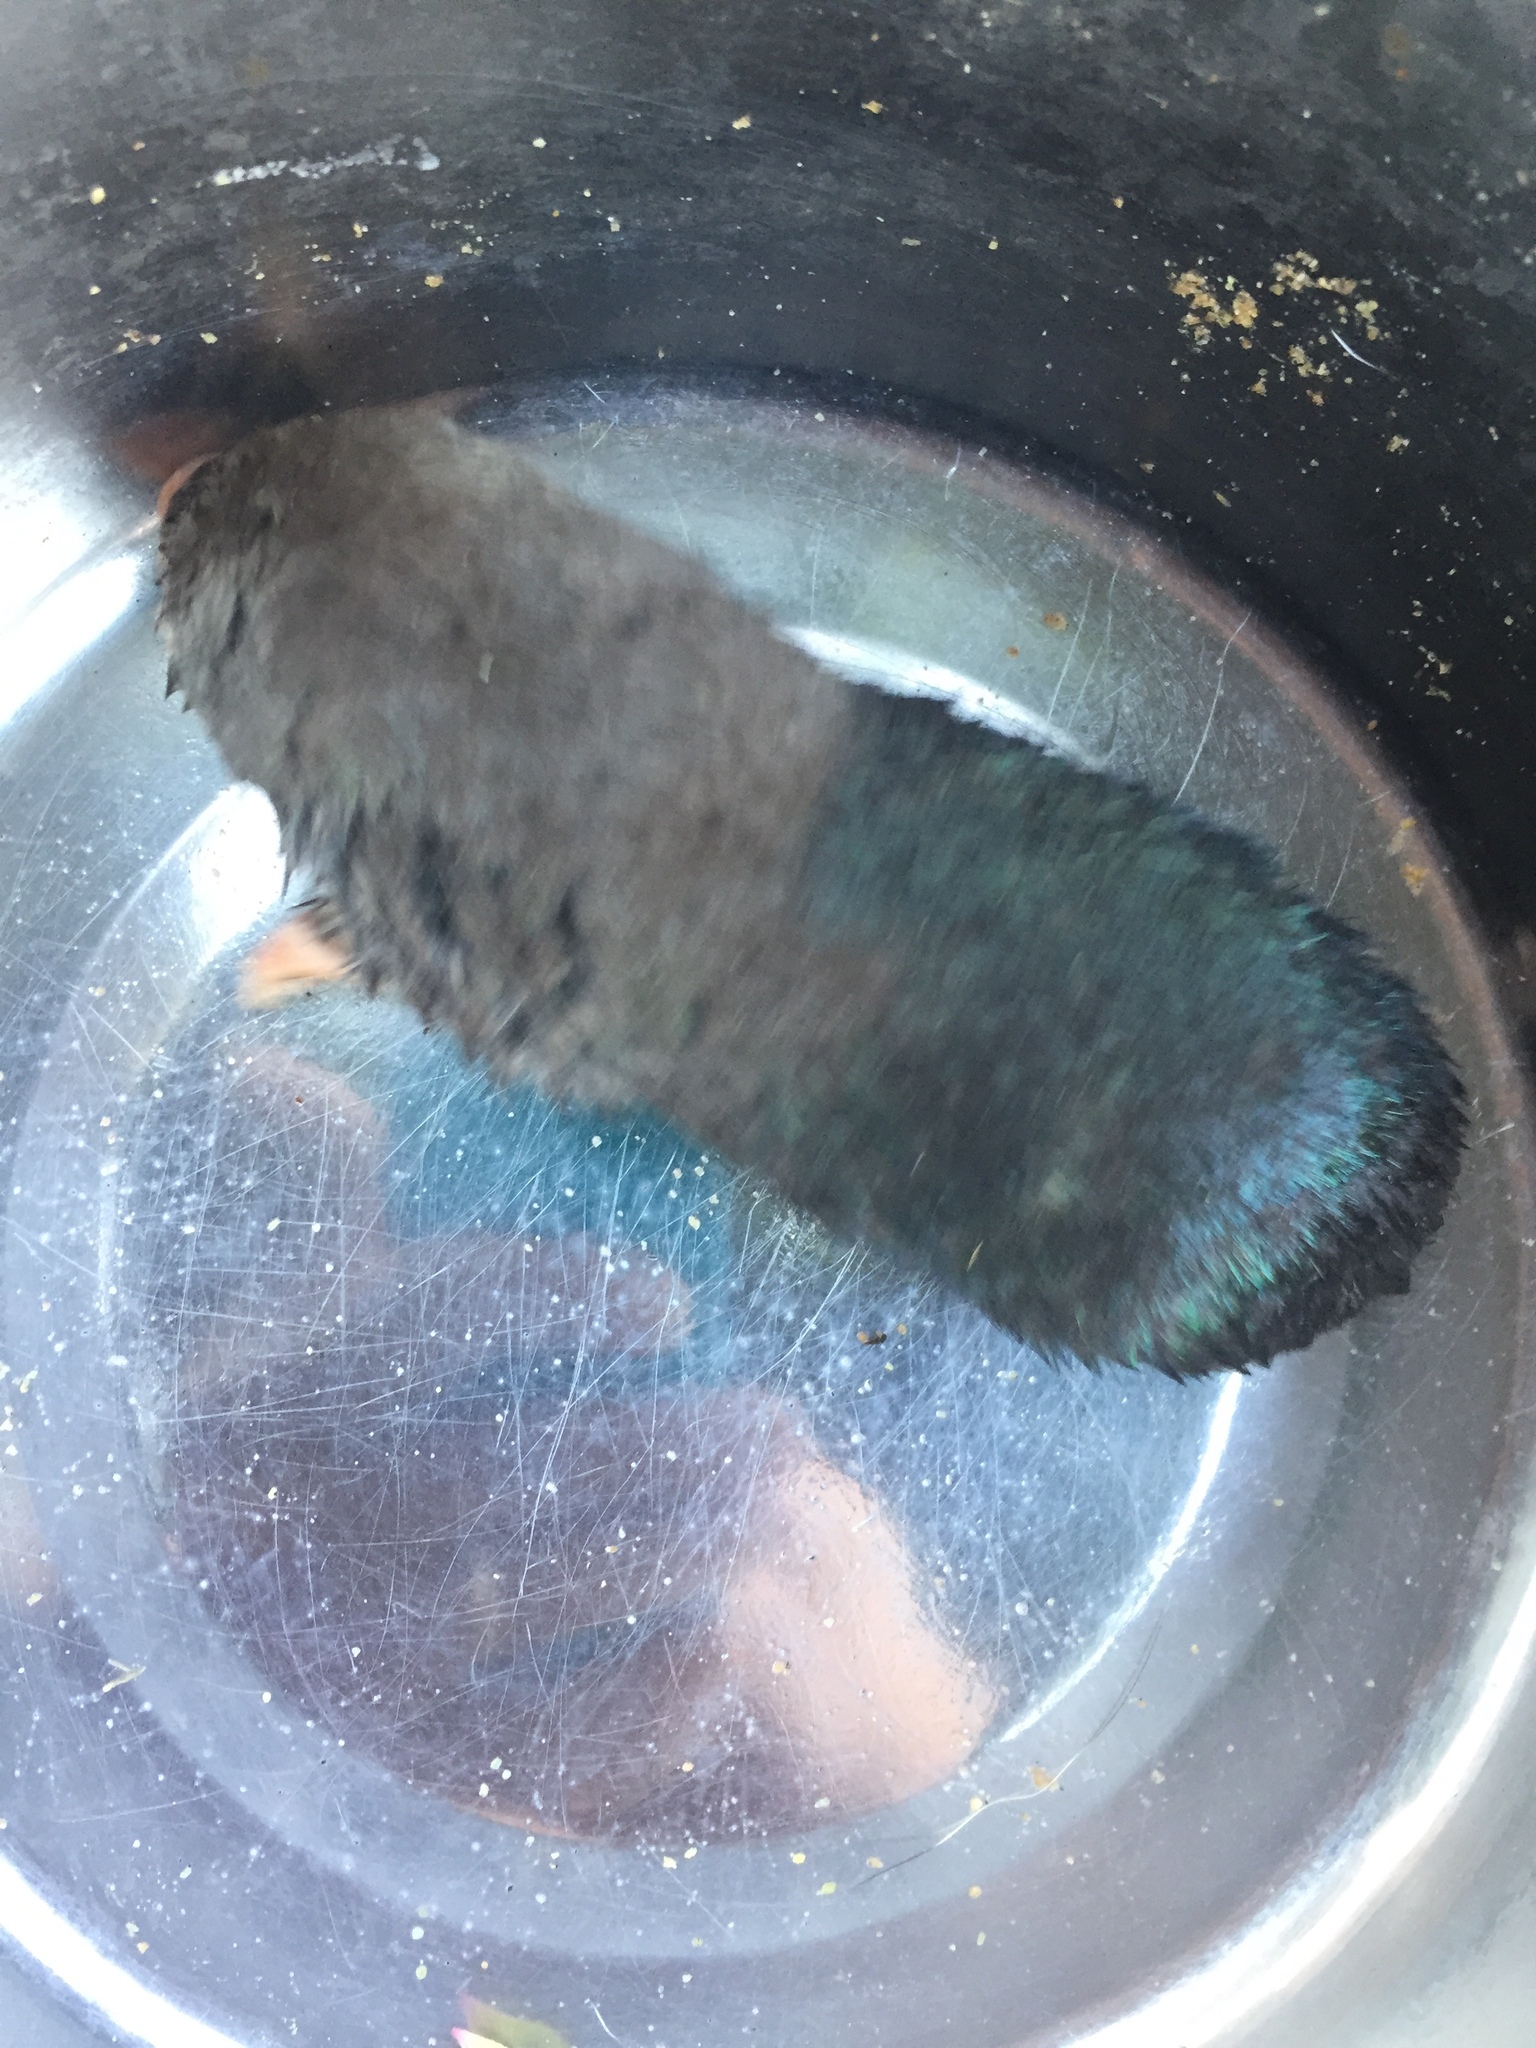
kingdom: Animalia
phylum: Chordata
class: Mammalia
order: Afrosoricida
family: Chrysochloridae
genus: Chrysochloris
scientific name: Chrysochloris asiatica
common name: Cape golden mole
